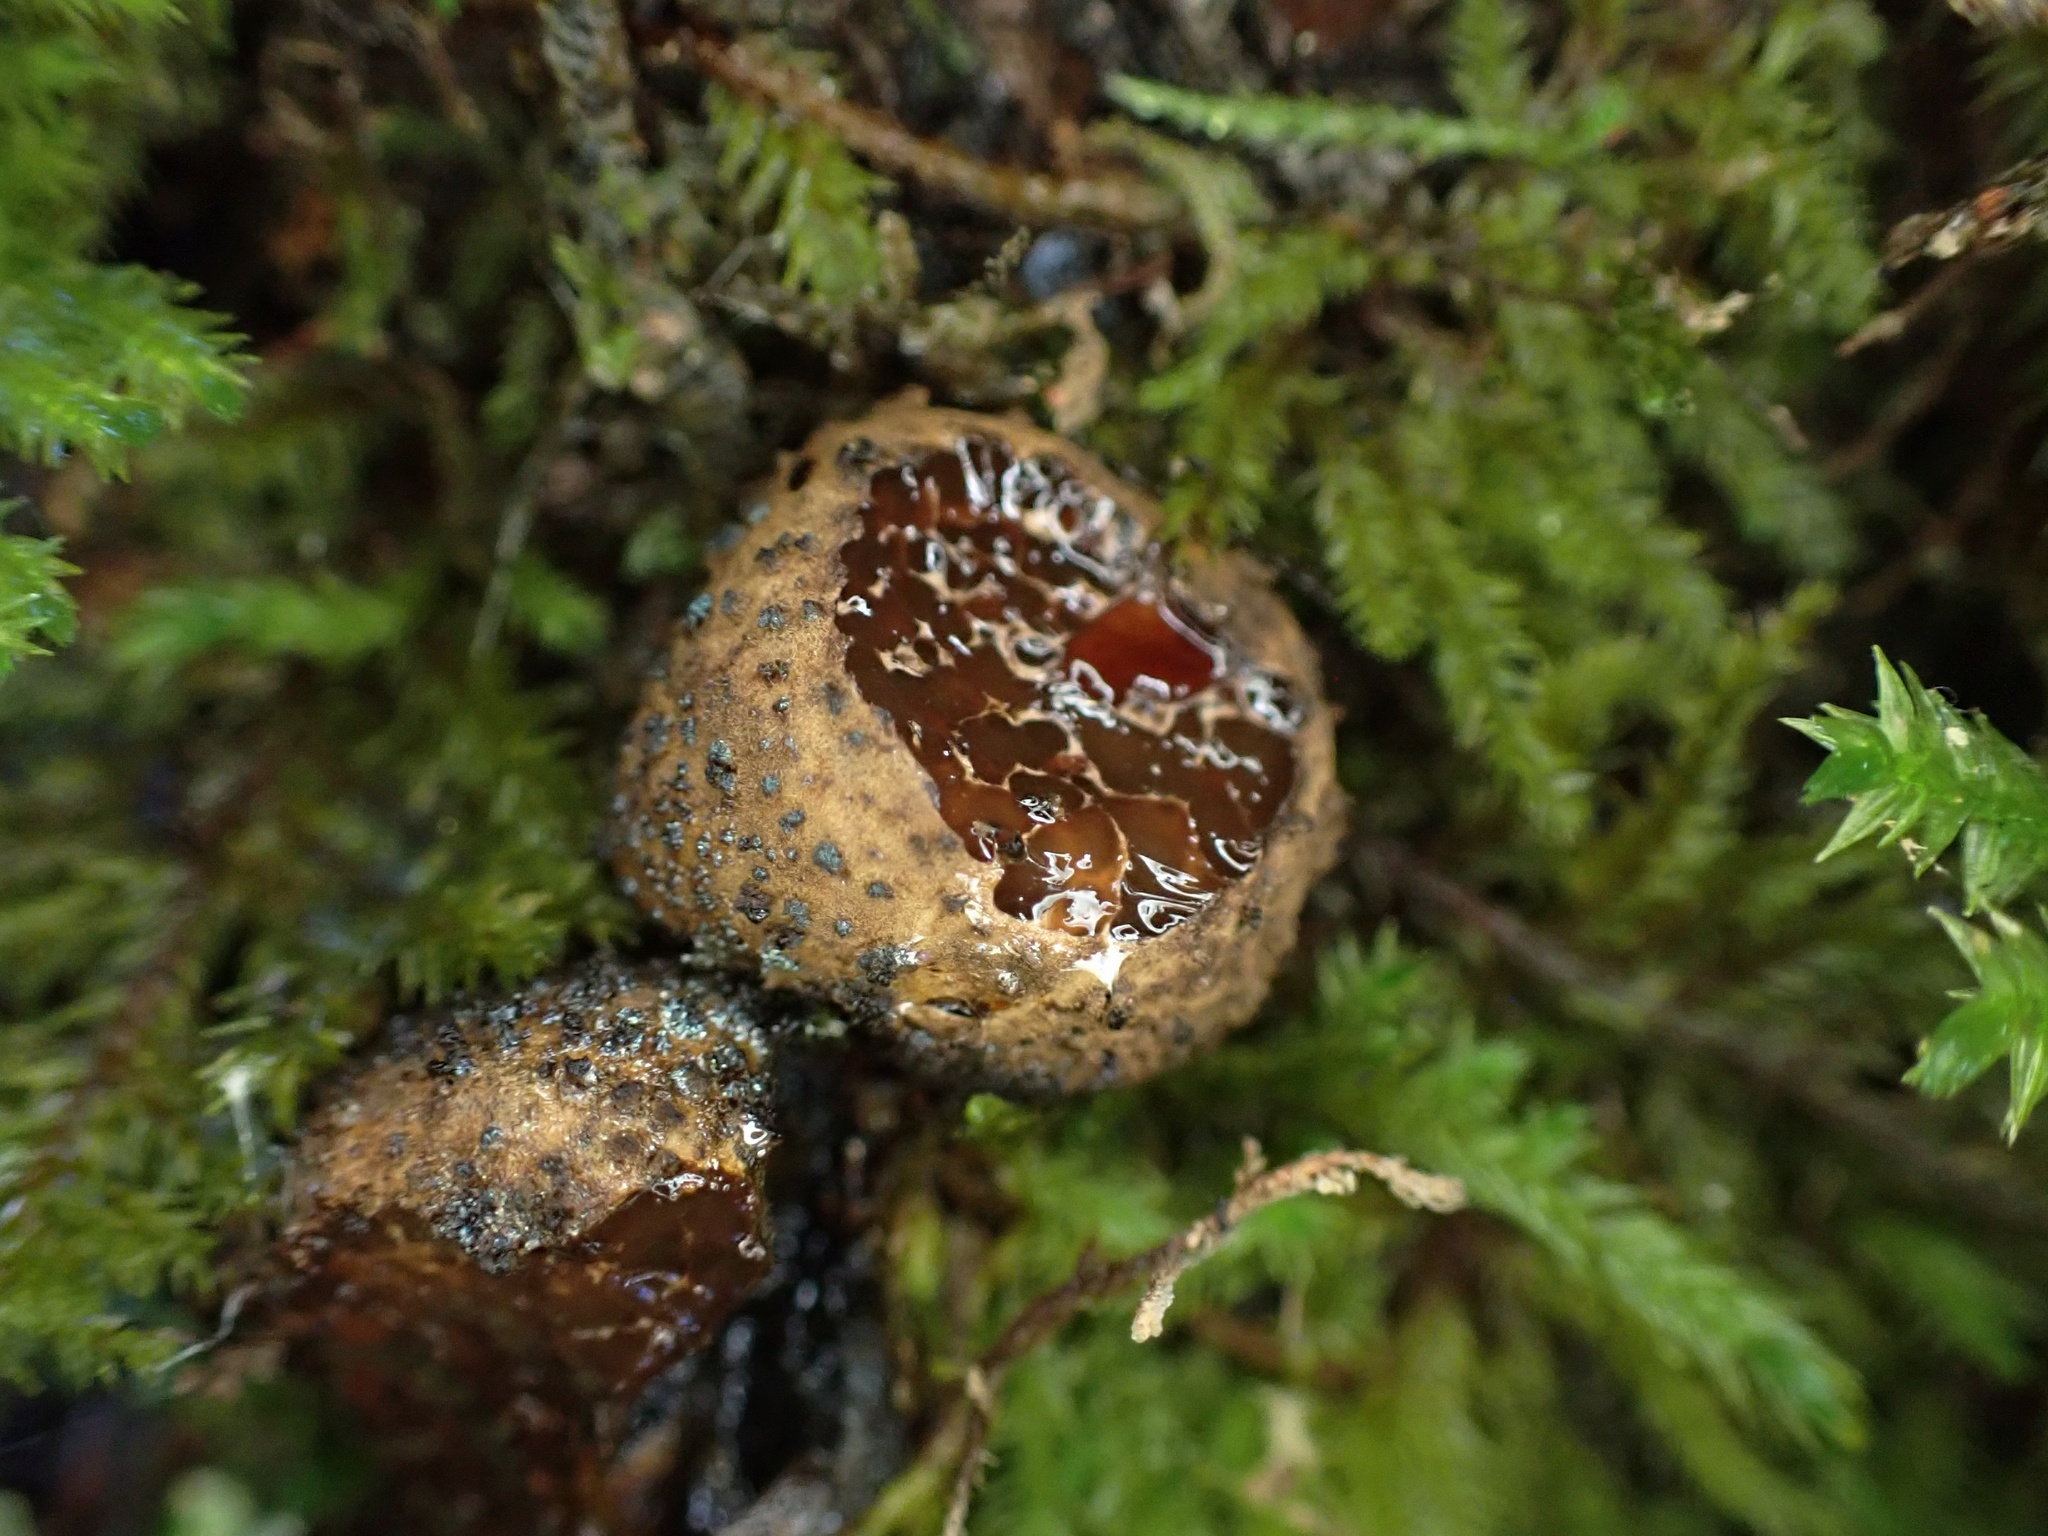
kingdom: Fungi
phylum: Ascomycota
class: Leotiomycetes
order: Phacidiales
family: Phacidiaceae
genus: Bulgaria
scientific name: Bulgaria inquinans
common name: Black bulgar
